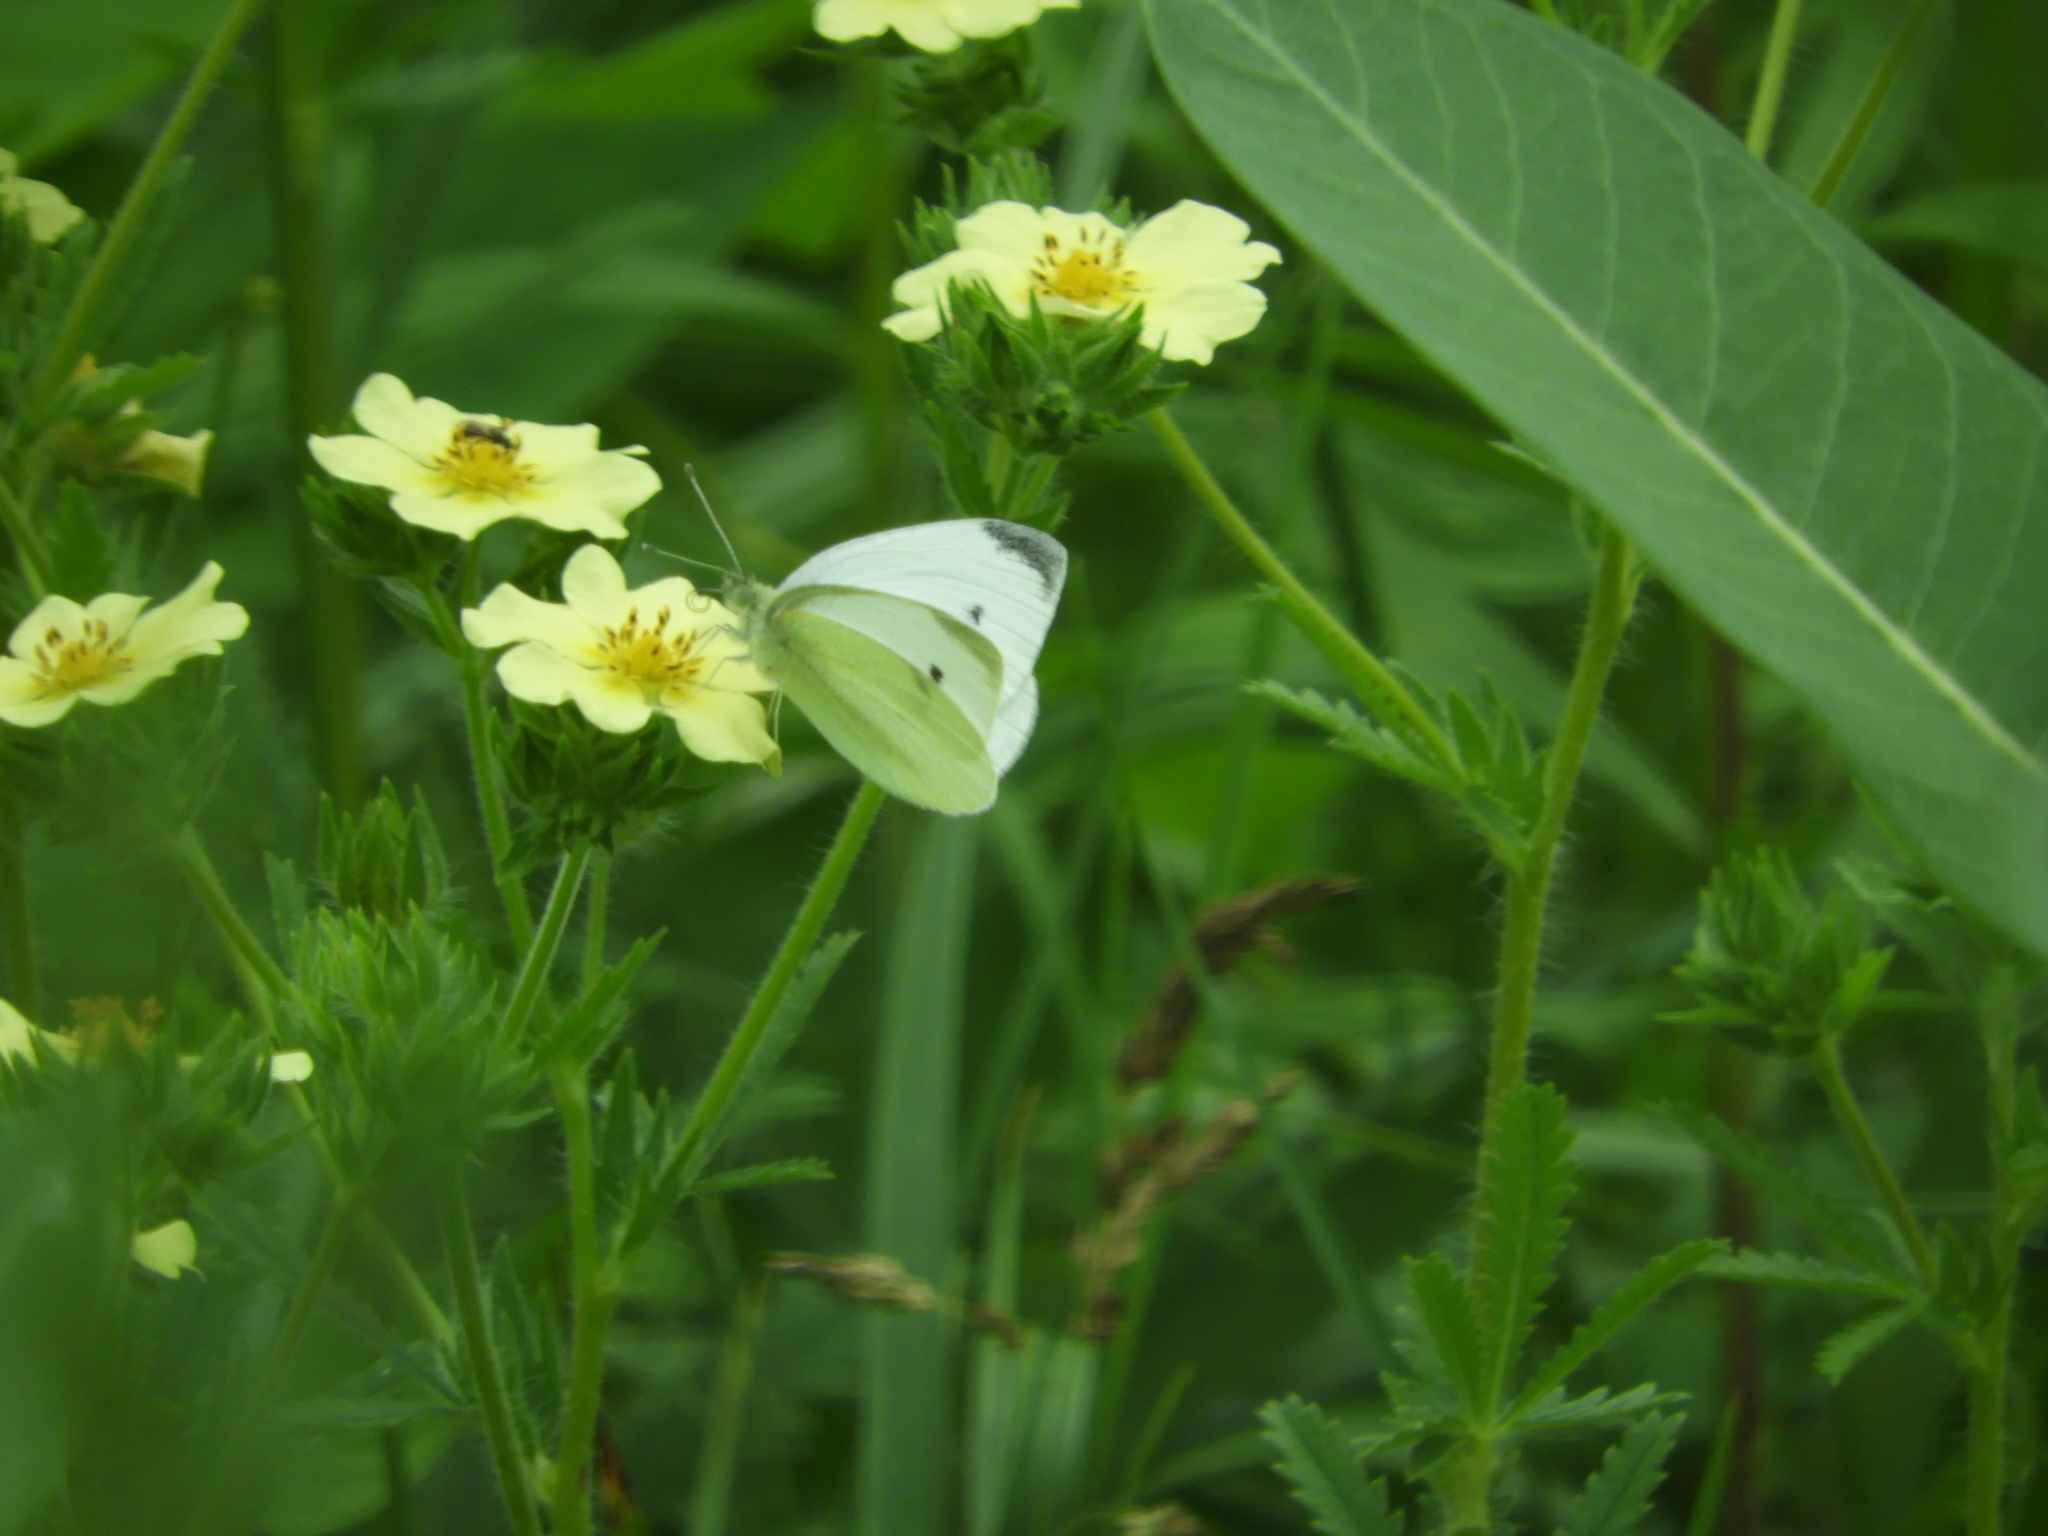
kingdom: Animalia
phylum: Arthropoda
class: Insecta
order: Lepidoptera
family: Pieridae
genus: Pieris
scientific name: Pieris rapae
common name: Small white
